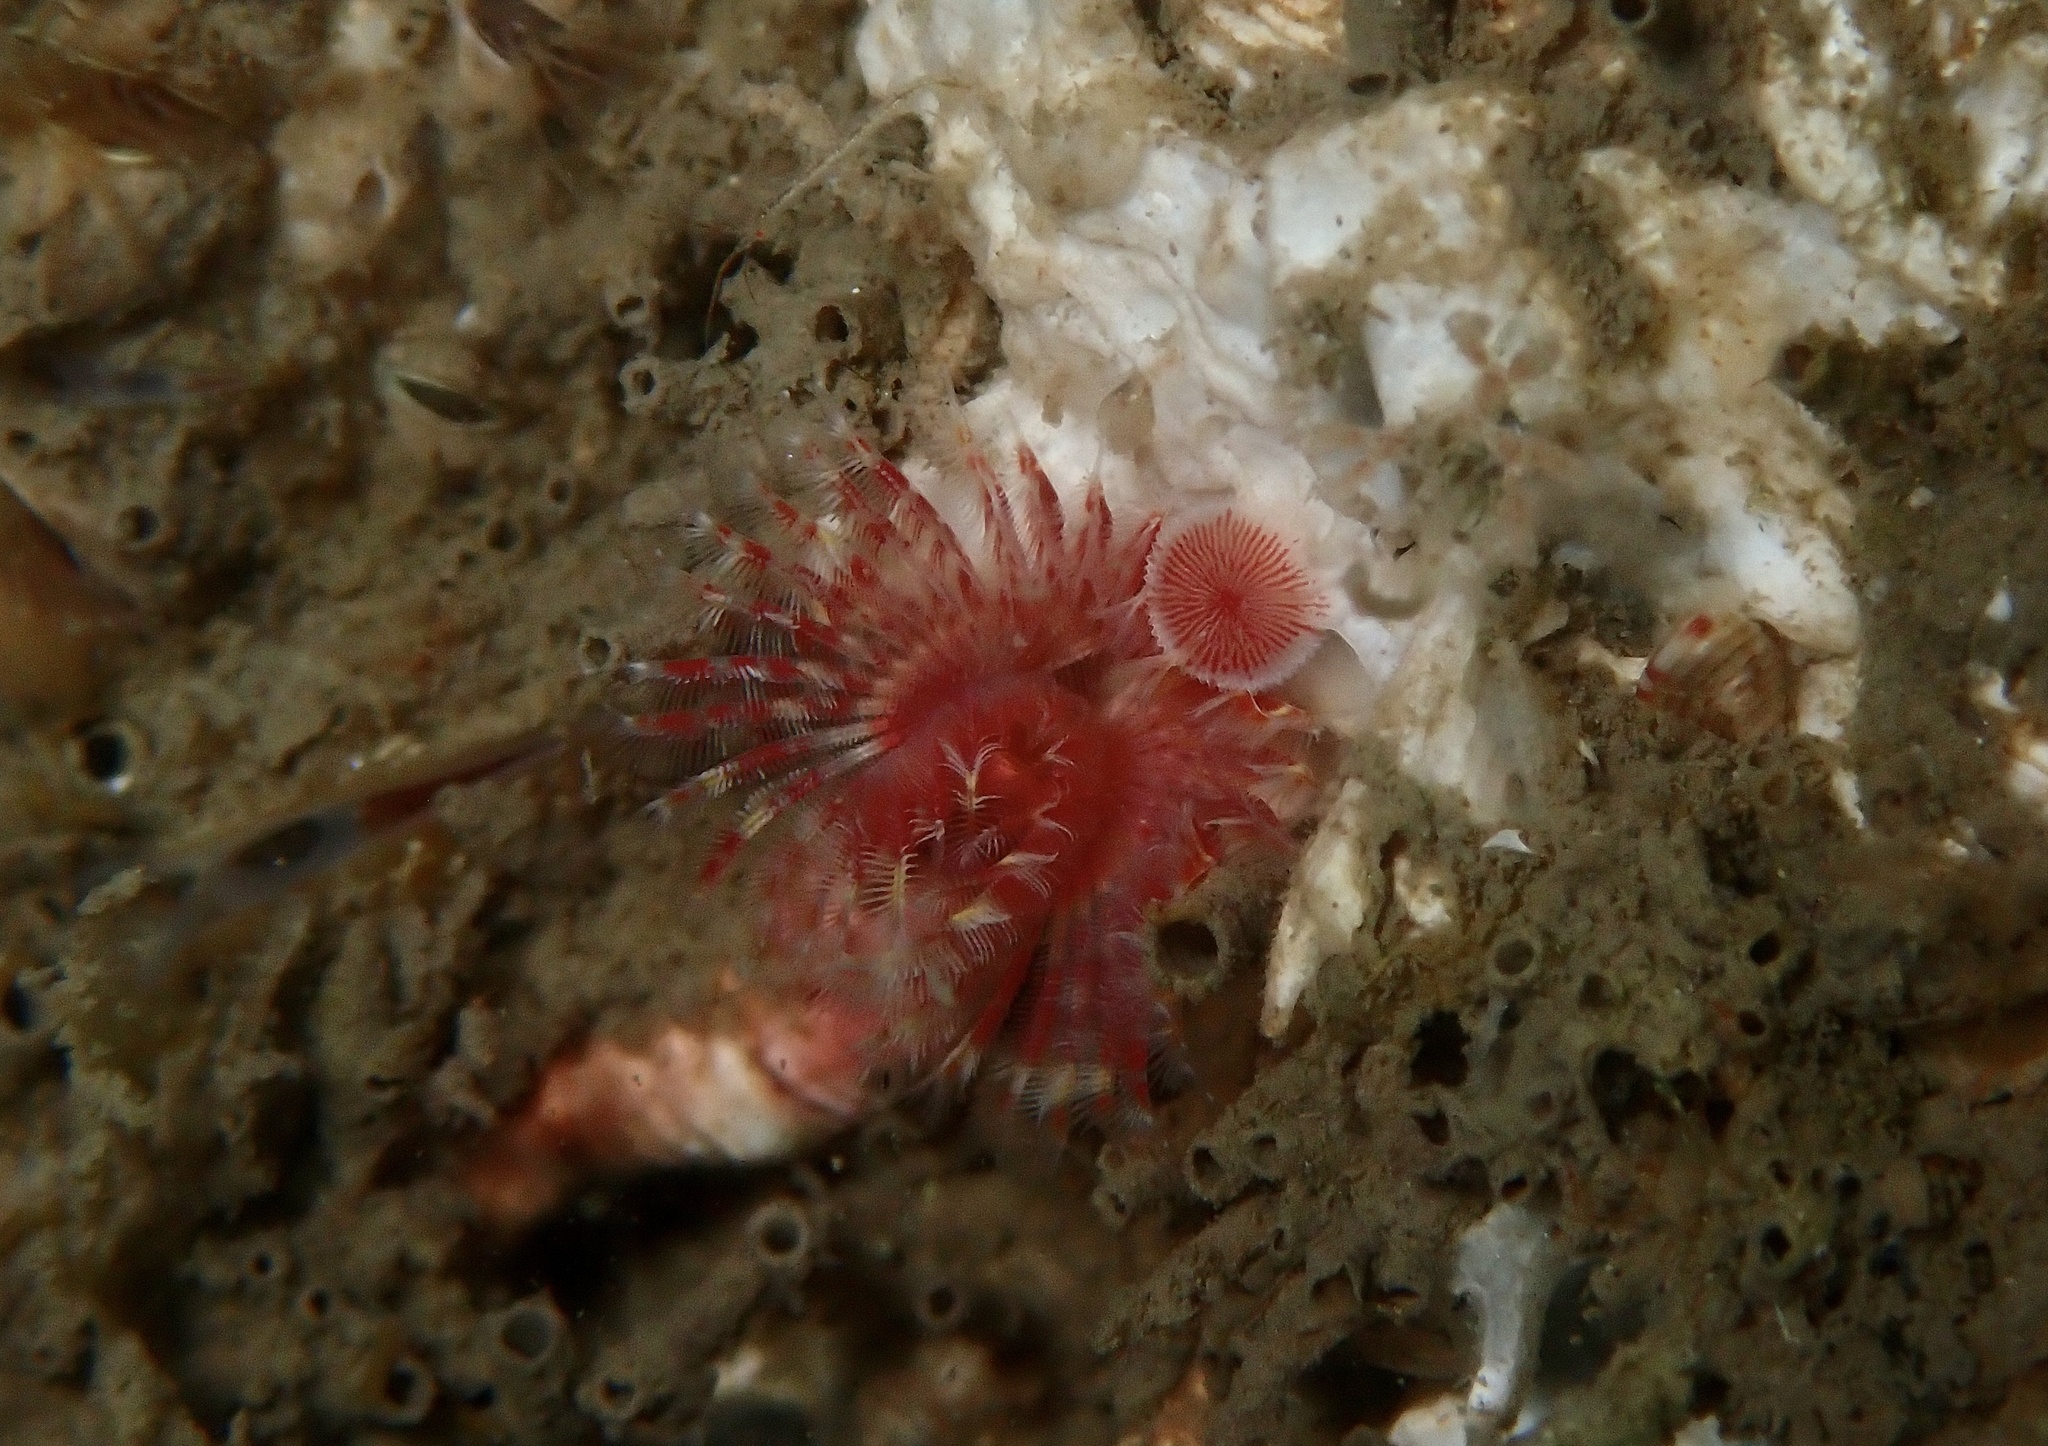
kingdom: Animalia
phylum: Annelida
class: Polychaeta
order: Sabellida
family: Serpulidae
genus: Serpula
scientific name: Serpula vermicularis
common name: Calcareous tubeworm
